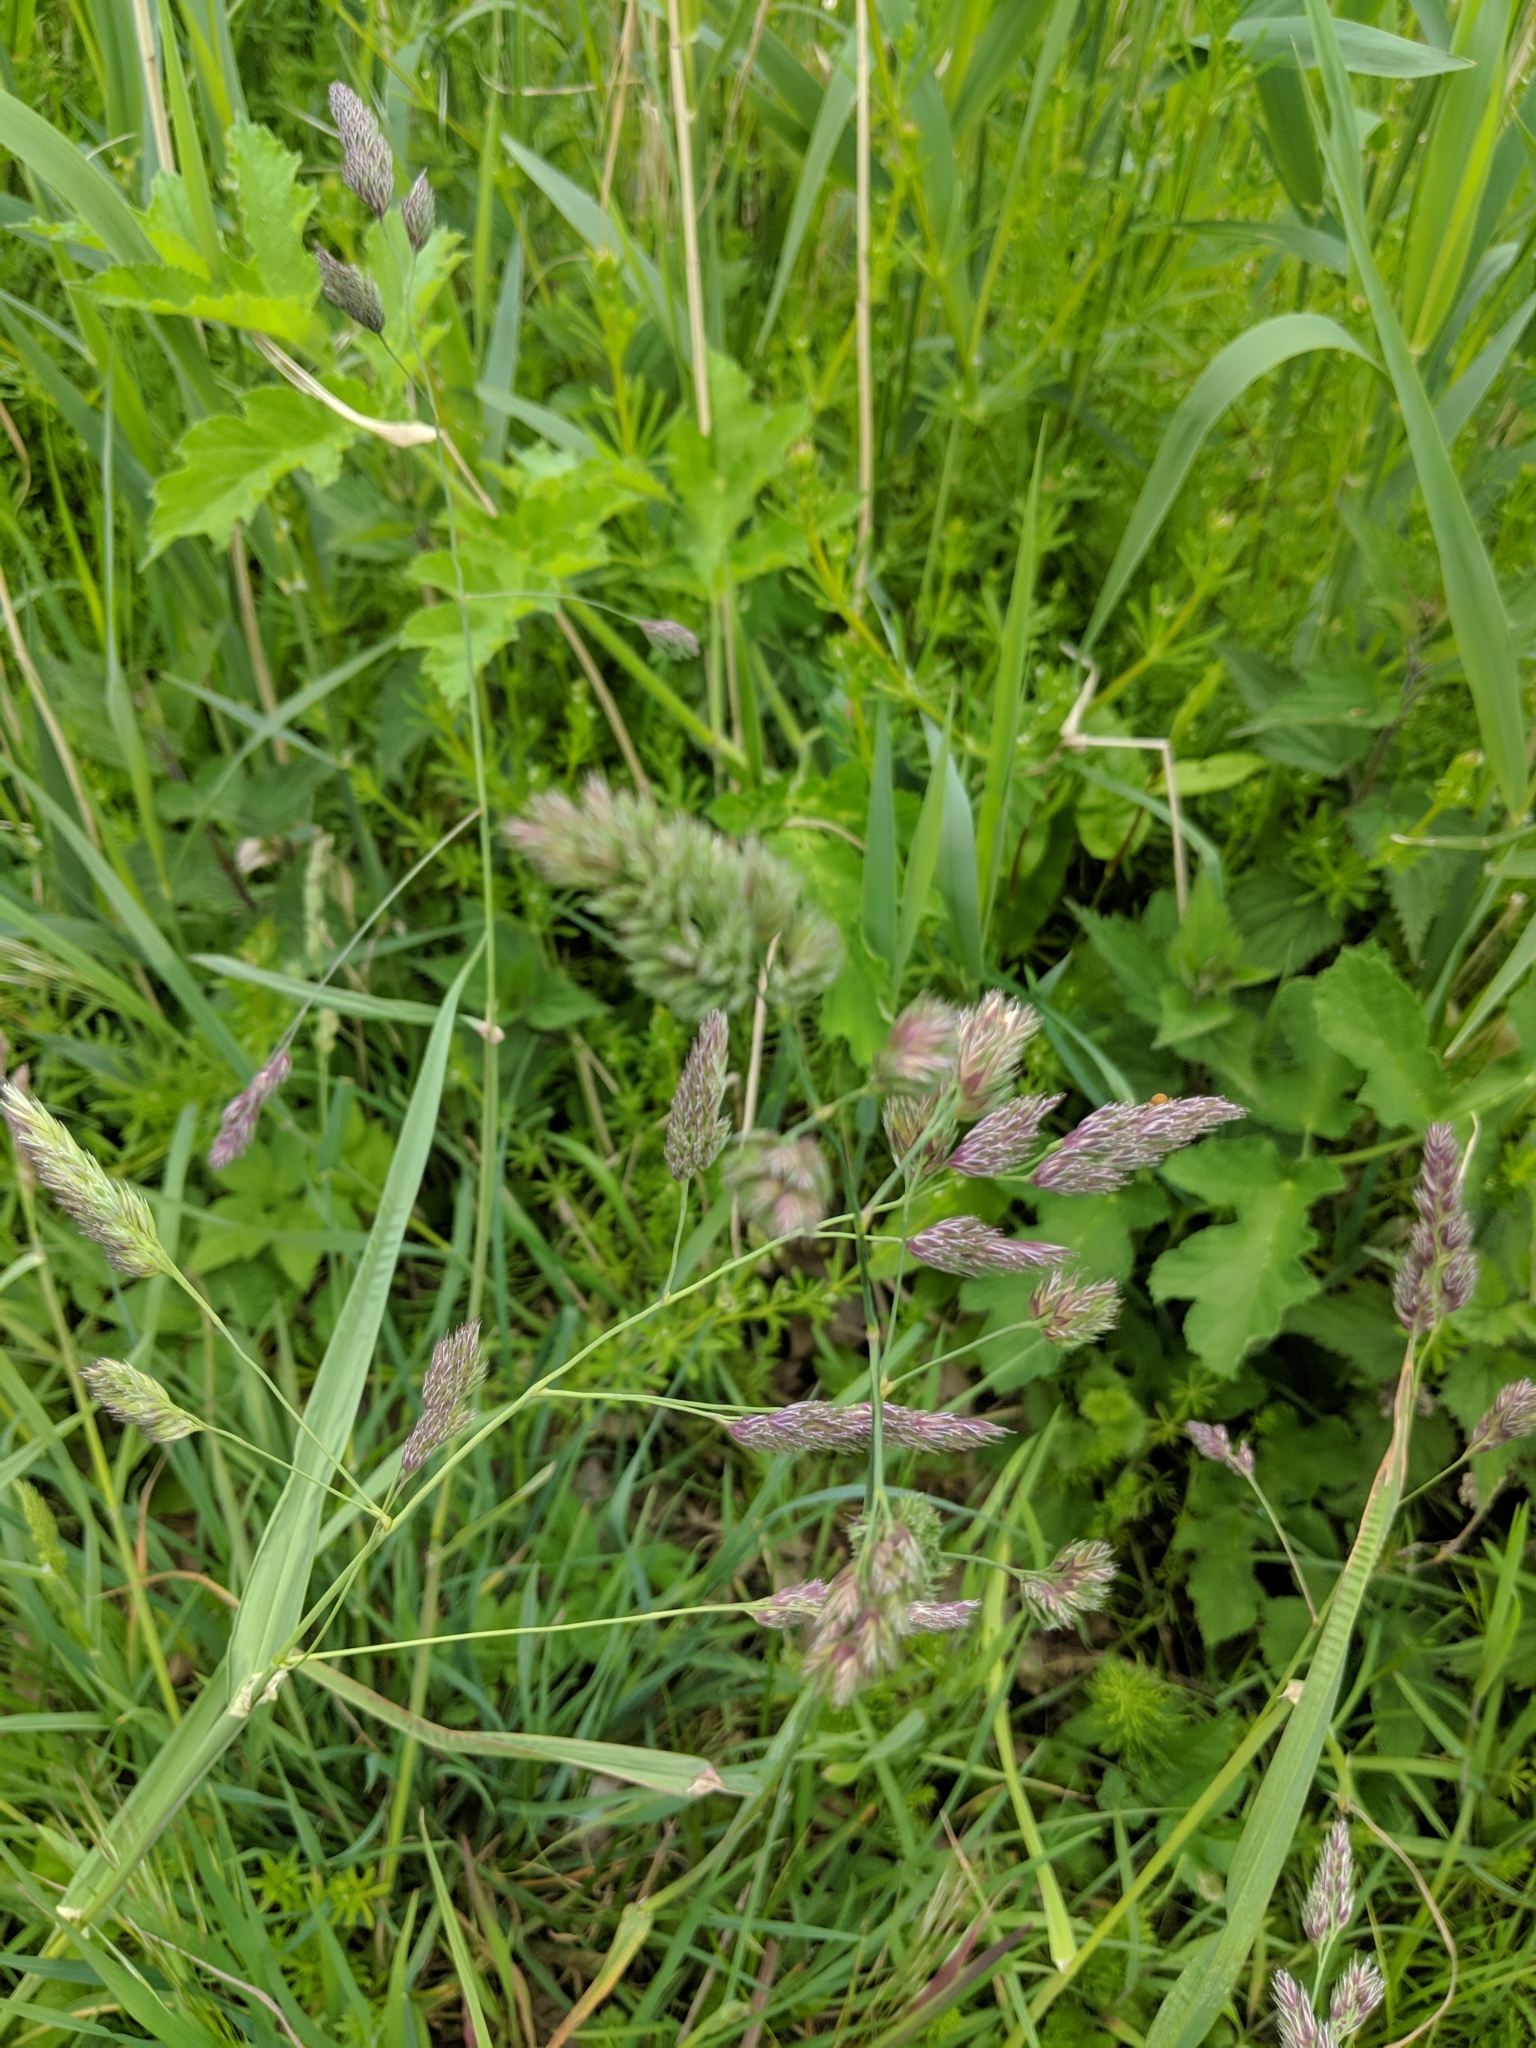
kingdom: Plantae
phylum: Tracheophyta
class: Liliopsida
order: Poales
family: Poaceae
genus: Dactylis
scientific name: Dactylis glomerata
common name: Orchardgrass
